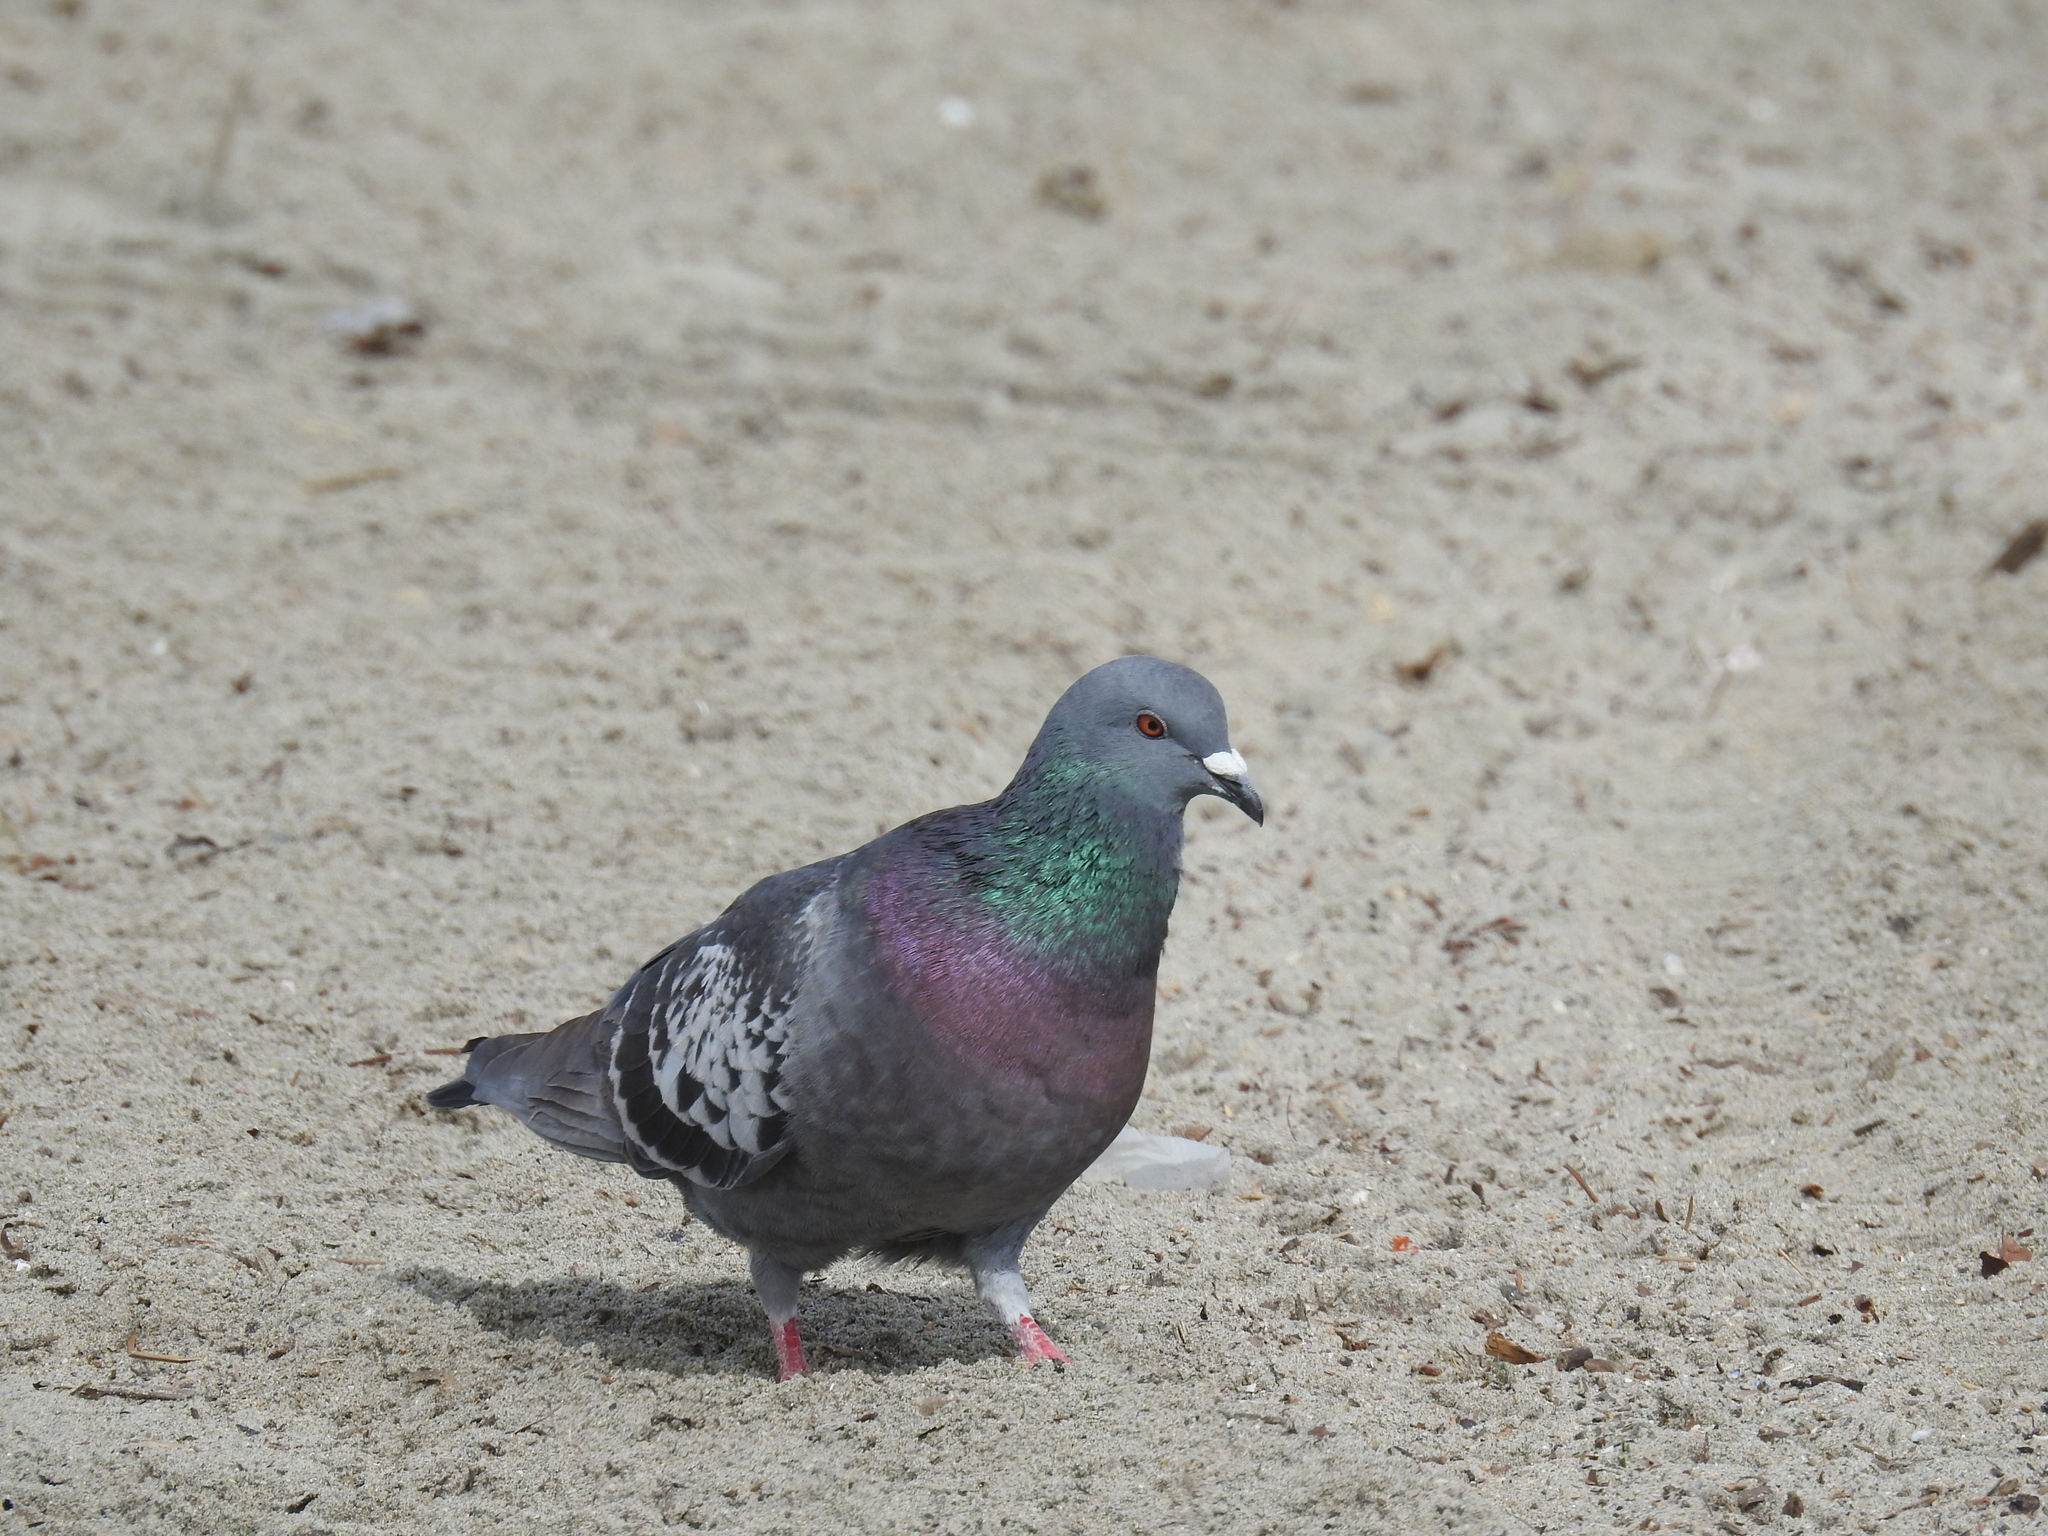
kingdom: Animalia
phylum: Chordata
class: Aves
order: Columbiformes
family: Columbidae
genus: Columba
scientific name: Columba livia
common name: Rock pigeon
